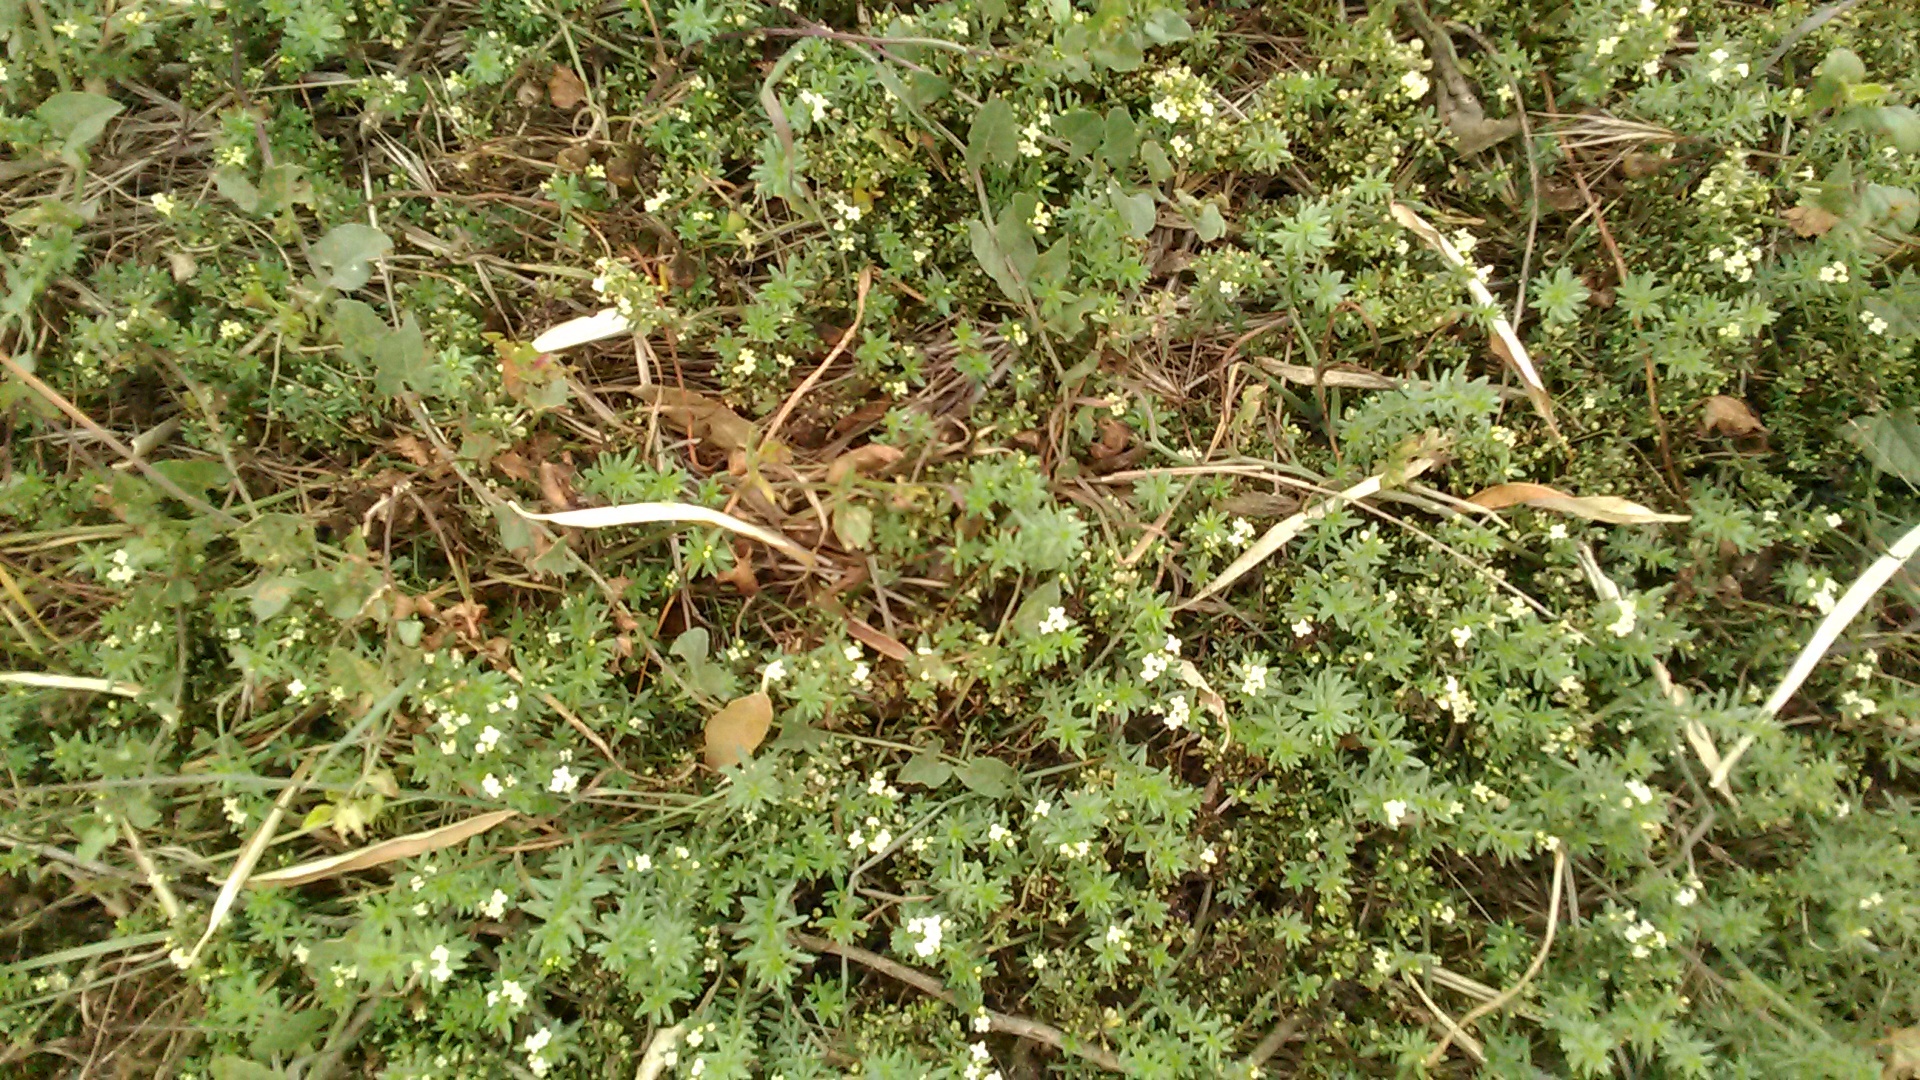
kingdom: Plantae
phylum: Tracheophyta
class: Magnoliopsida
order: Gentianales
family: Rubiaceae
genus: Galium
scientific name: Galium humifusum
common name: Spreading bedstraw
